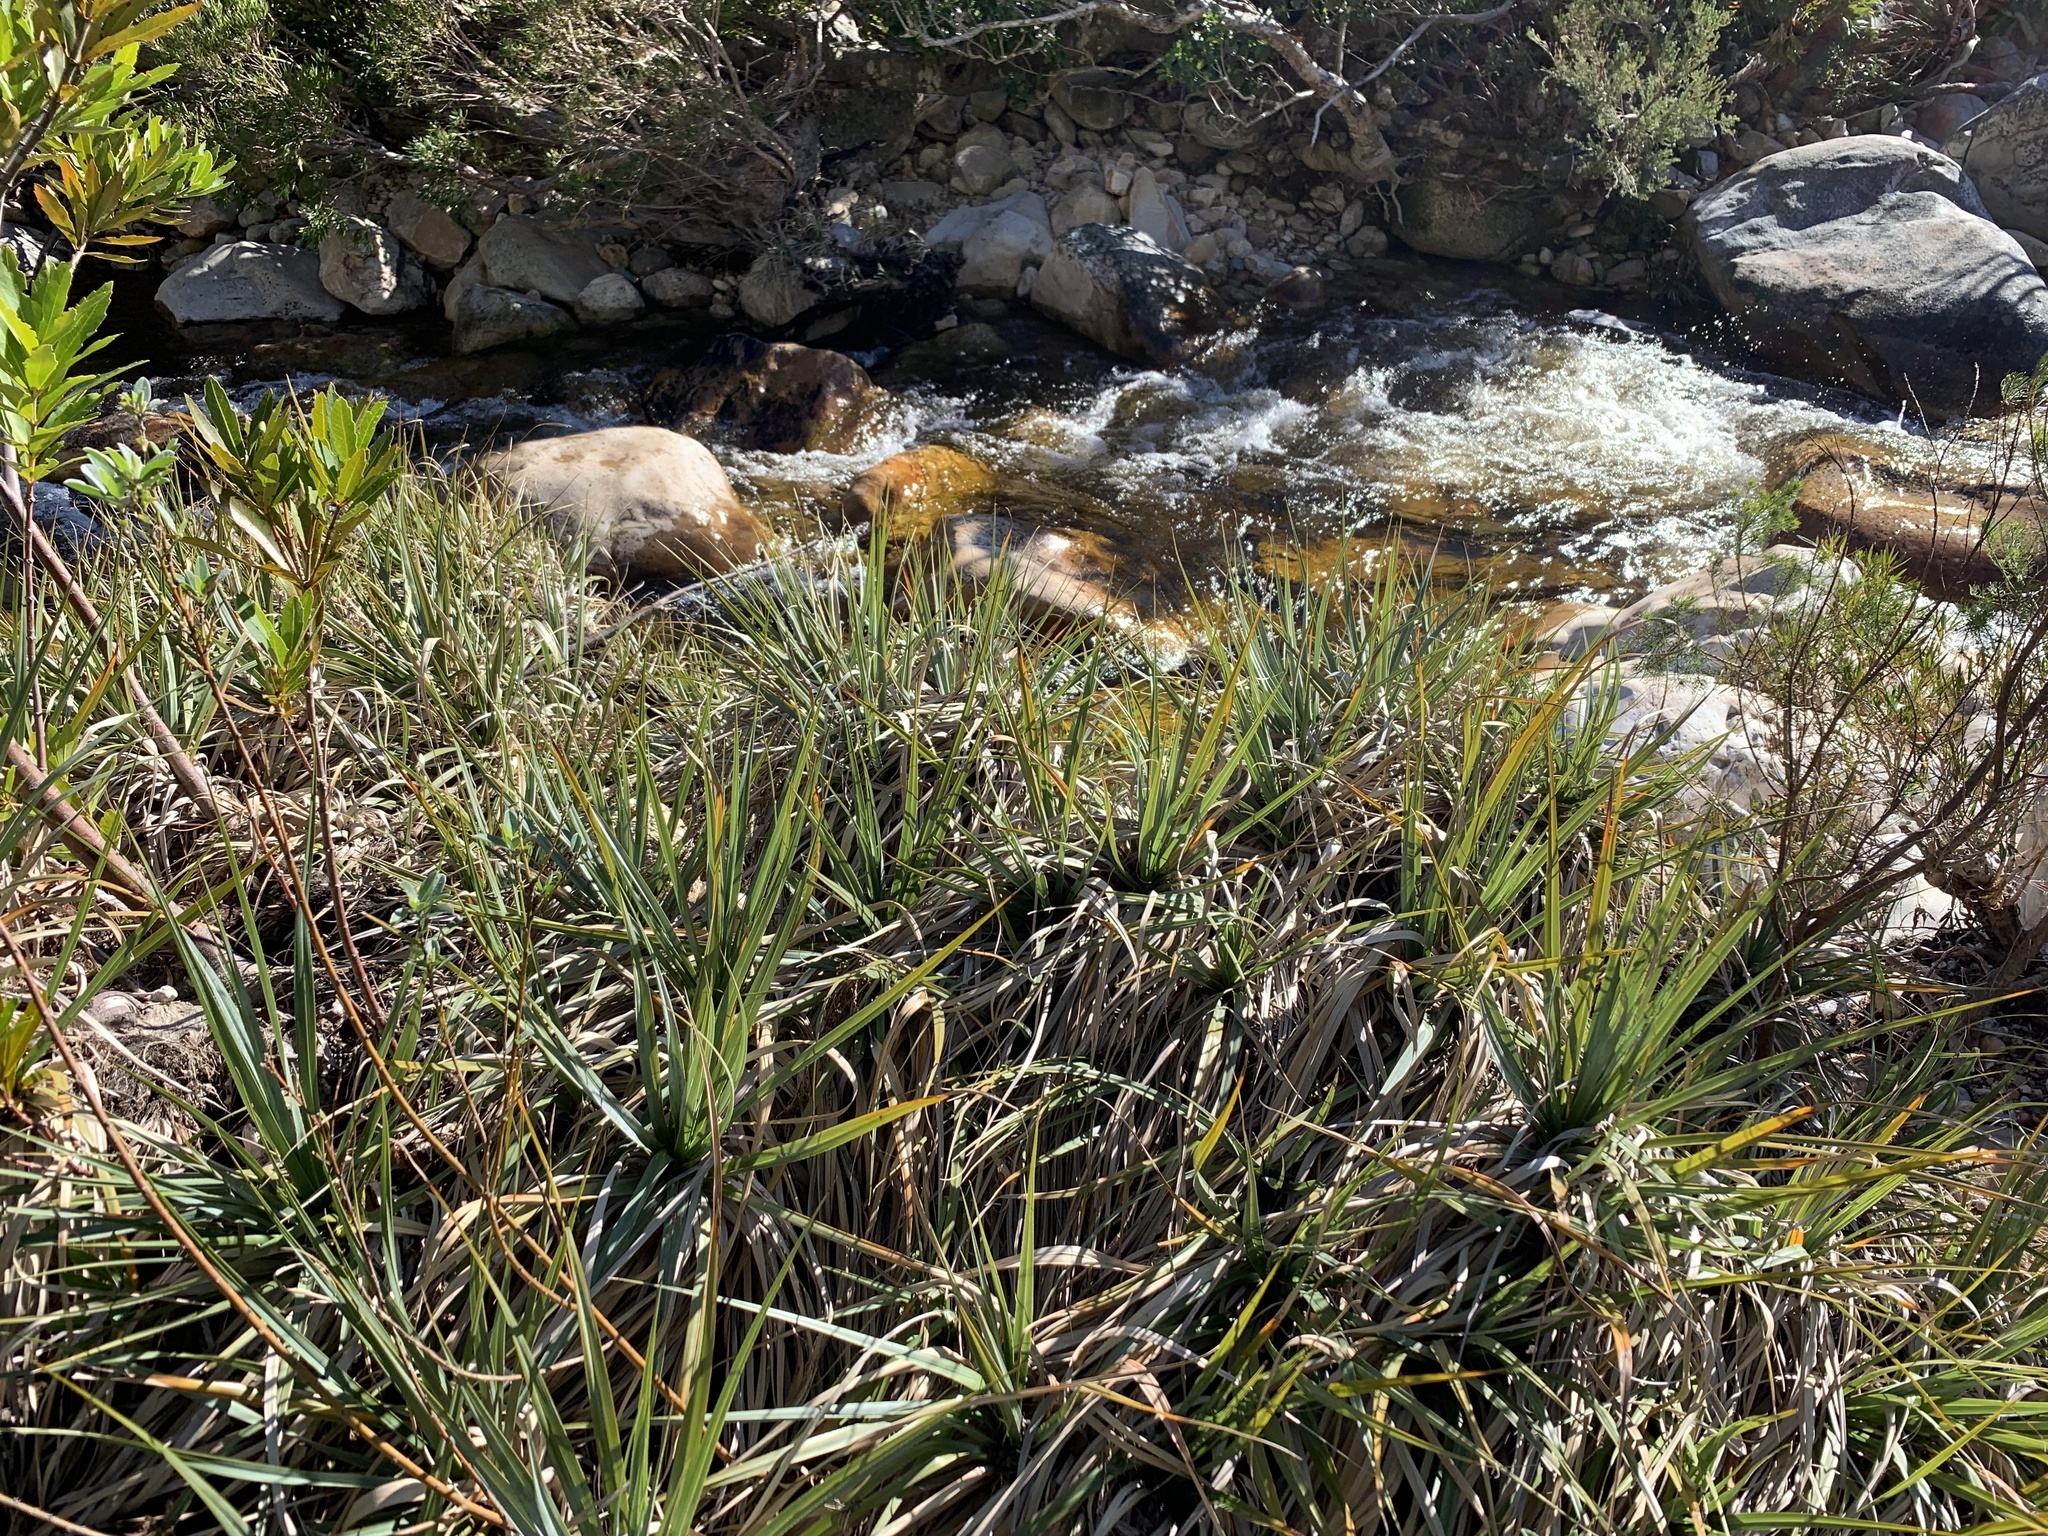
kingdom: Plantae
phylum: Tracheophyta
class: Liliopsida
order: Poales
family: Thurniaceae
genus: Prionium
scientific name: Prionium serratum
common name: Palmiet
